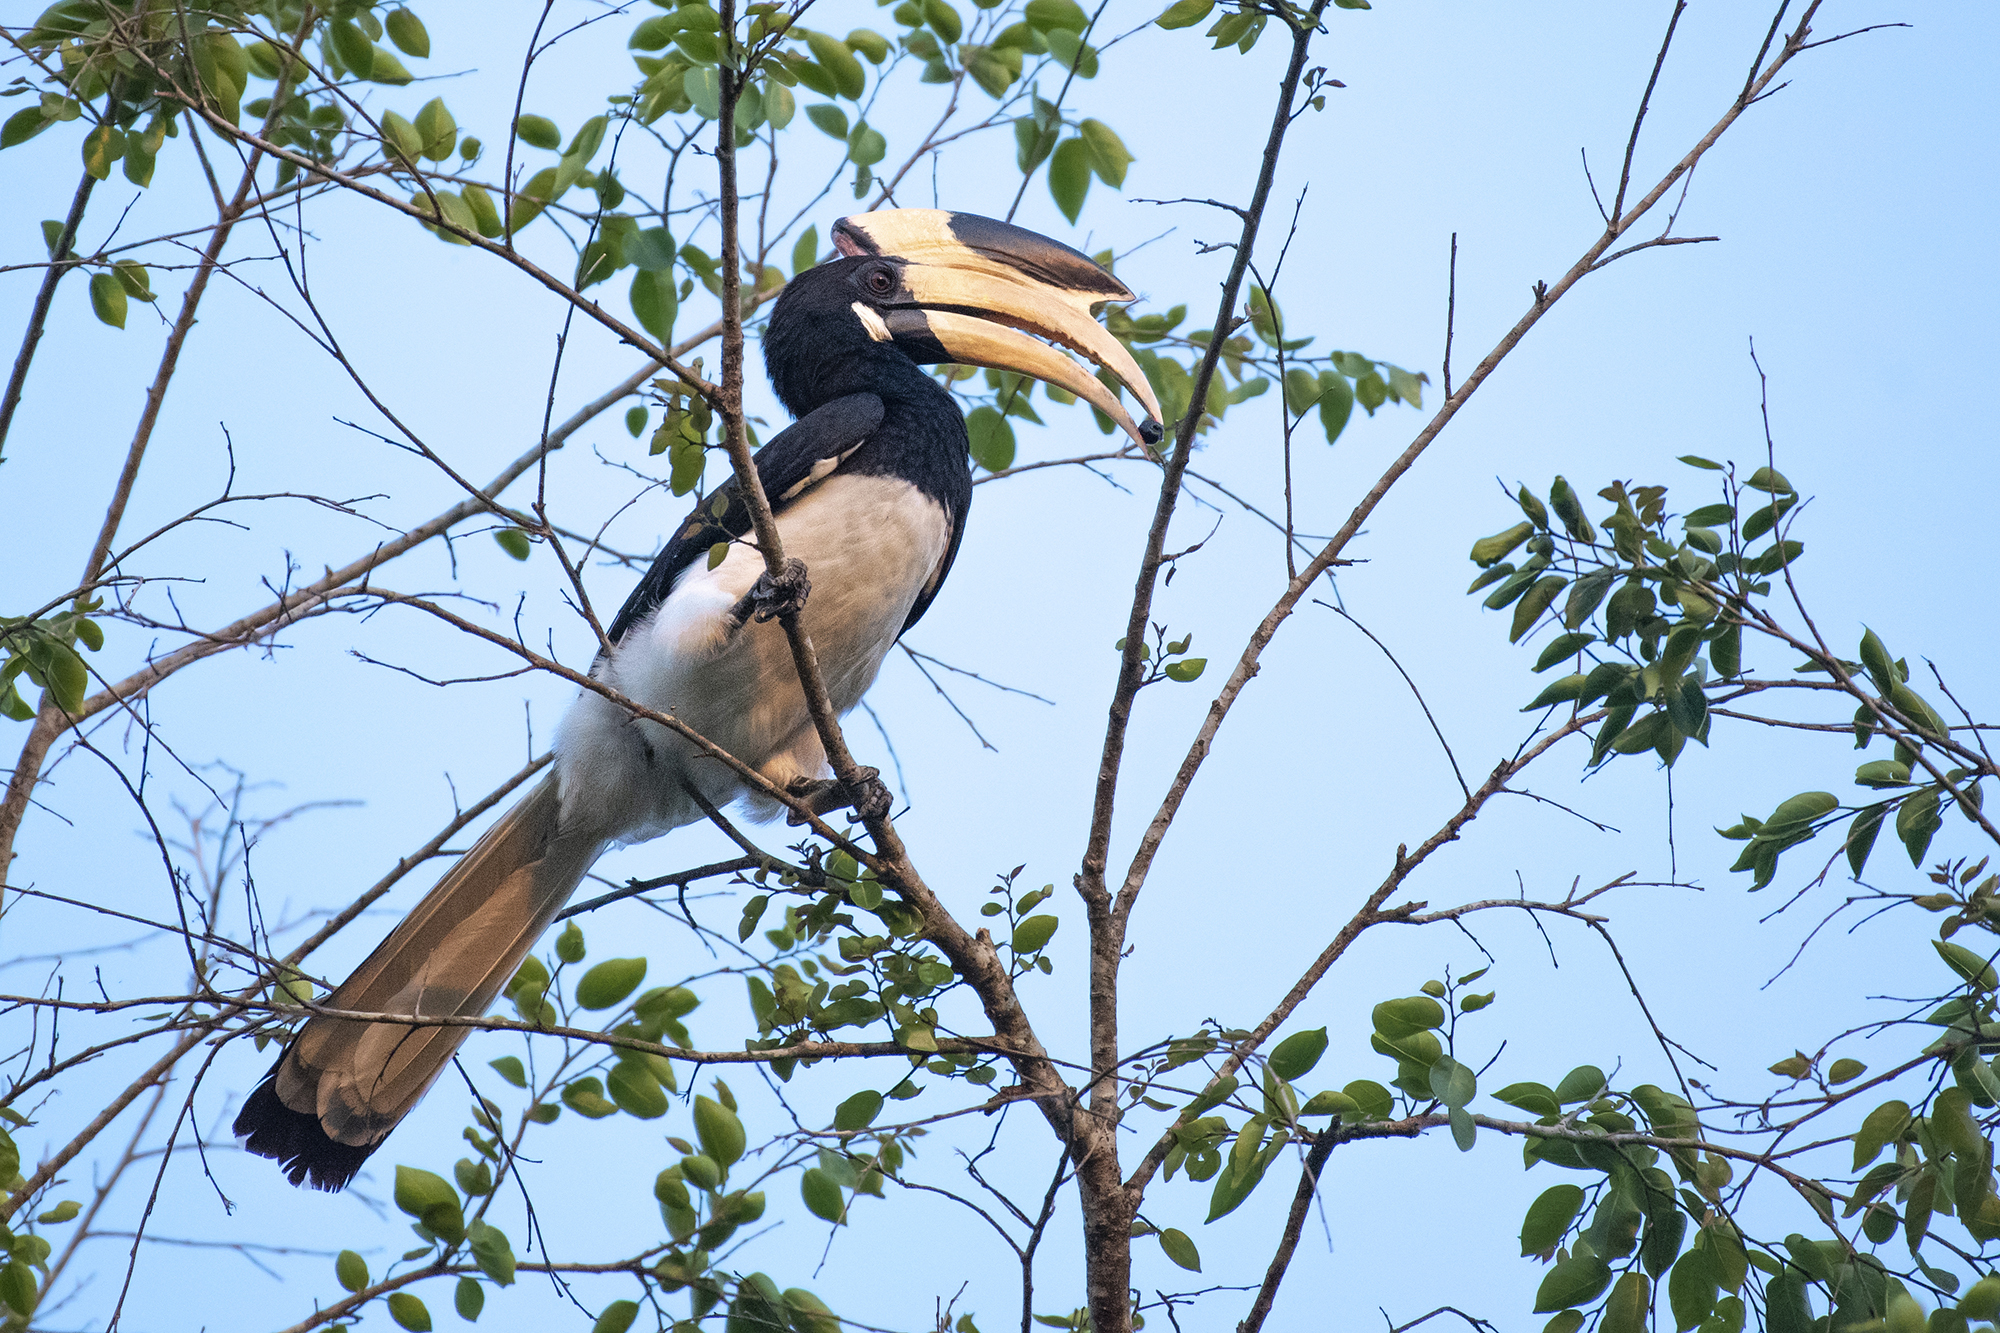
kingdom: Animalia
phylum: Chordata
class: Aves
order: Bucerotiformes
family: Bucerotidae
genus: Anthracoceros
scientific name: Anthracoceros coronatus
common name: Malabar pied hornbill
